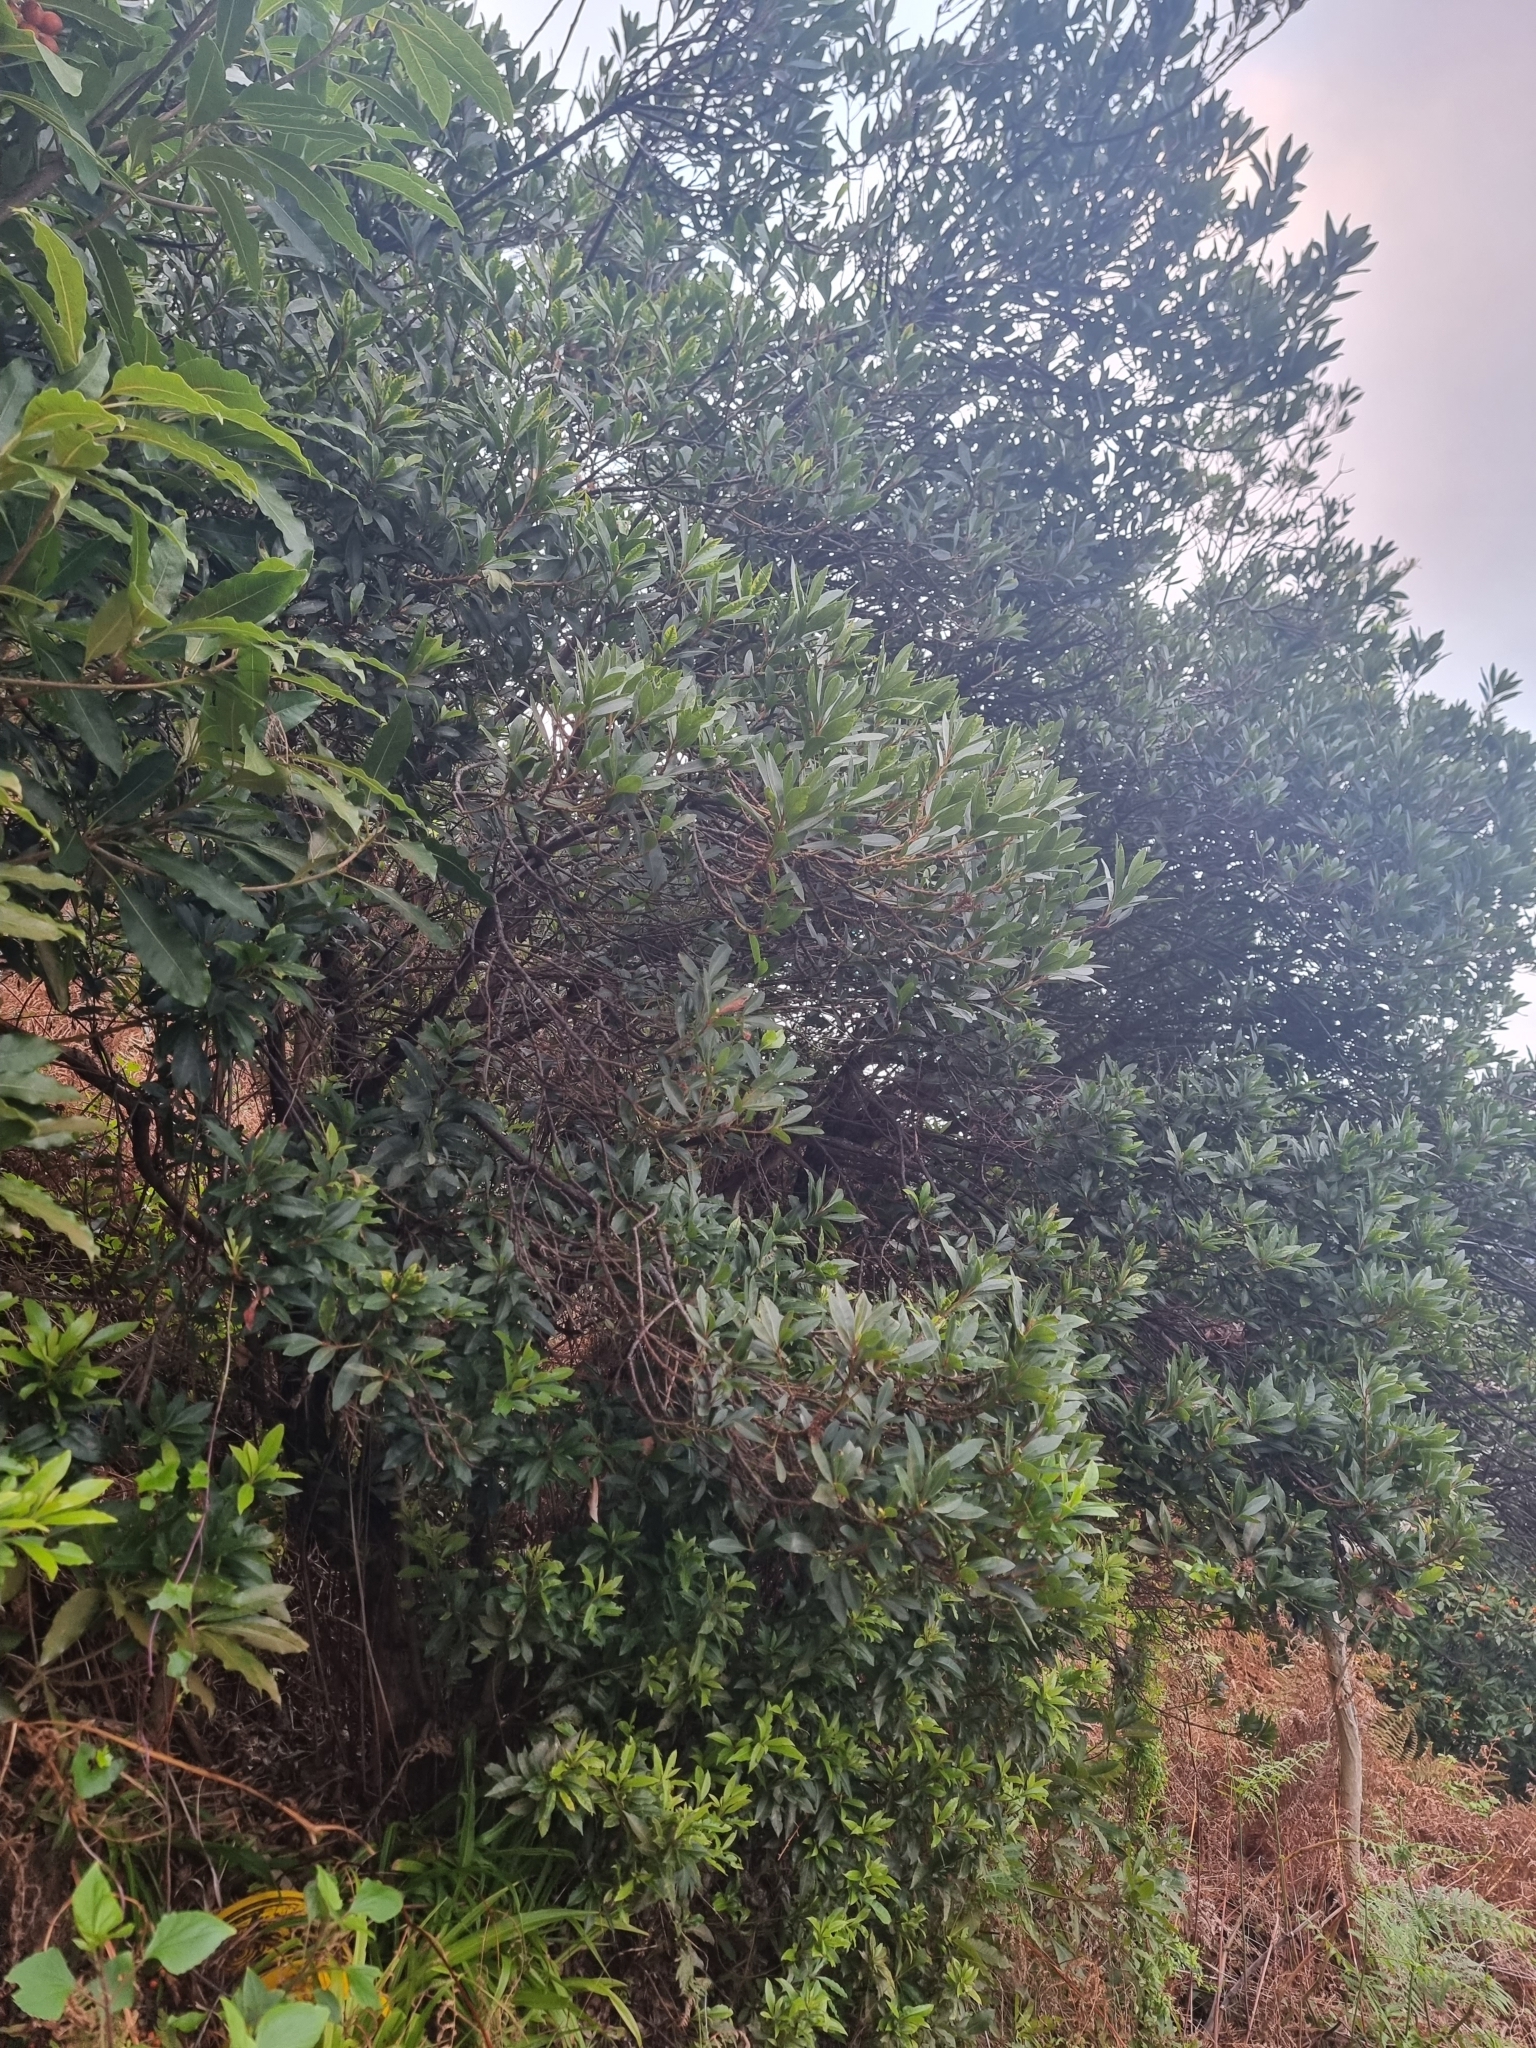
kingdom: Plantae
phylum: Tracheophyta
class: Magnoliopsida
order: Fagales
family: Myricaceae
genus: Morella
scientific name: Morella faya
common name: Firetree
